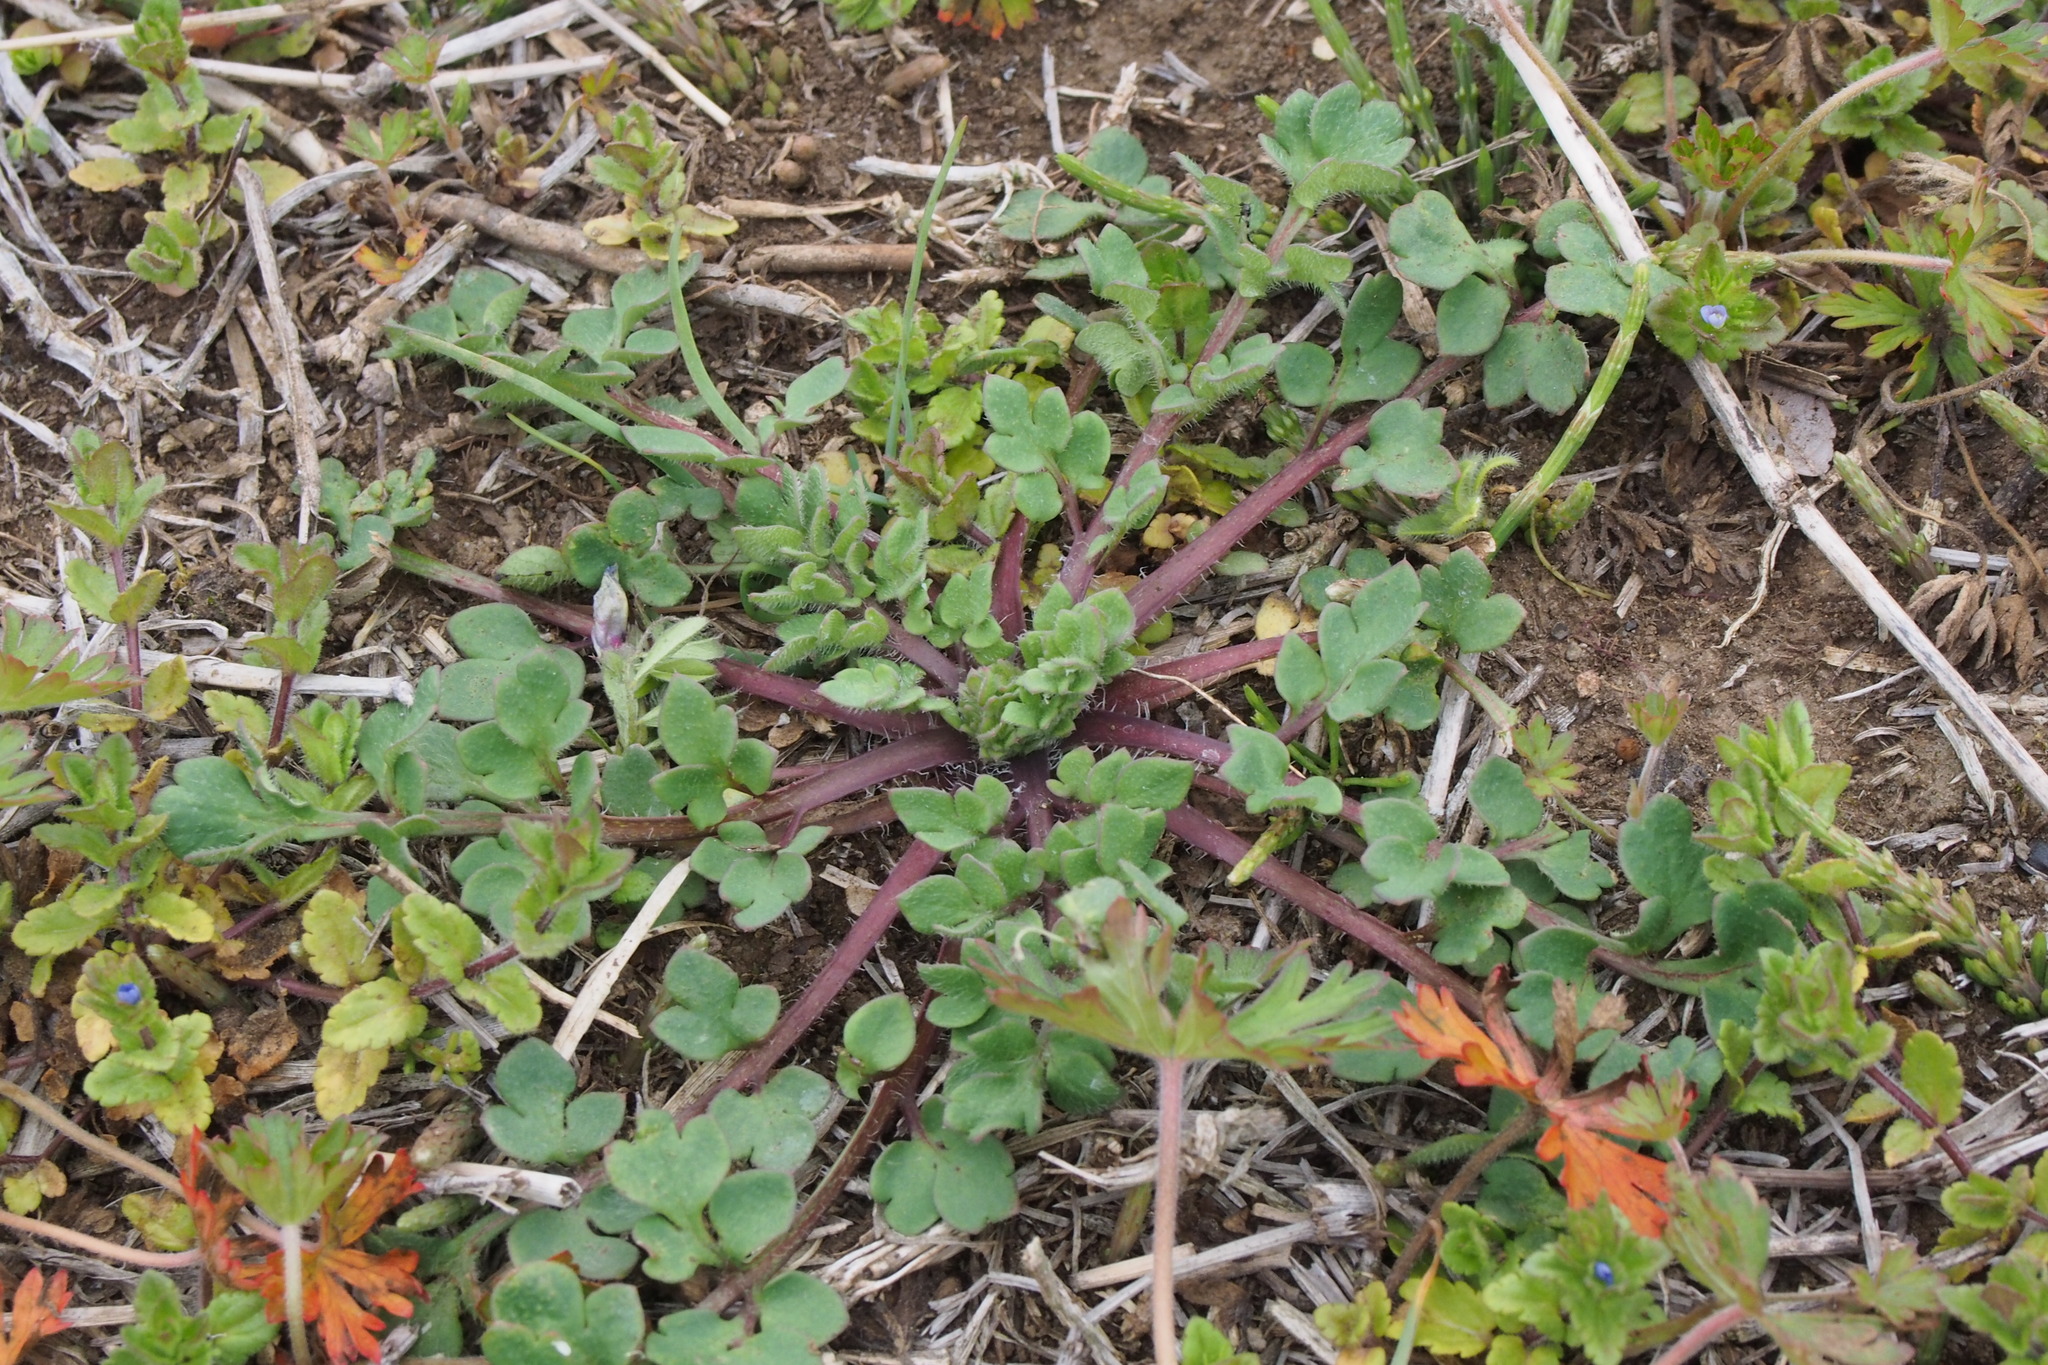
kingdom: Plantae
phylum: Tracheophyta
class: Magnoliopsida
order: Ranunculales
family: Papaveraceae
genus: Papaver
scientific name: Papaver dubium
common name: Long-headed poppy
